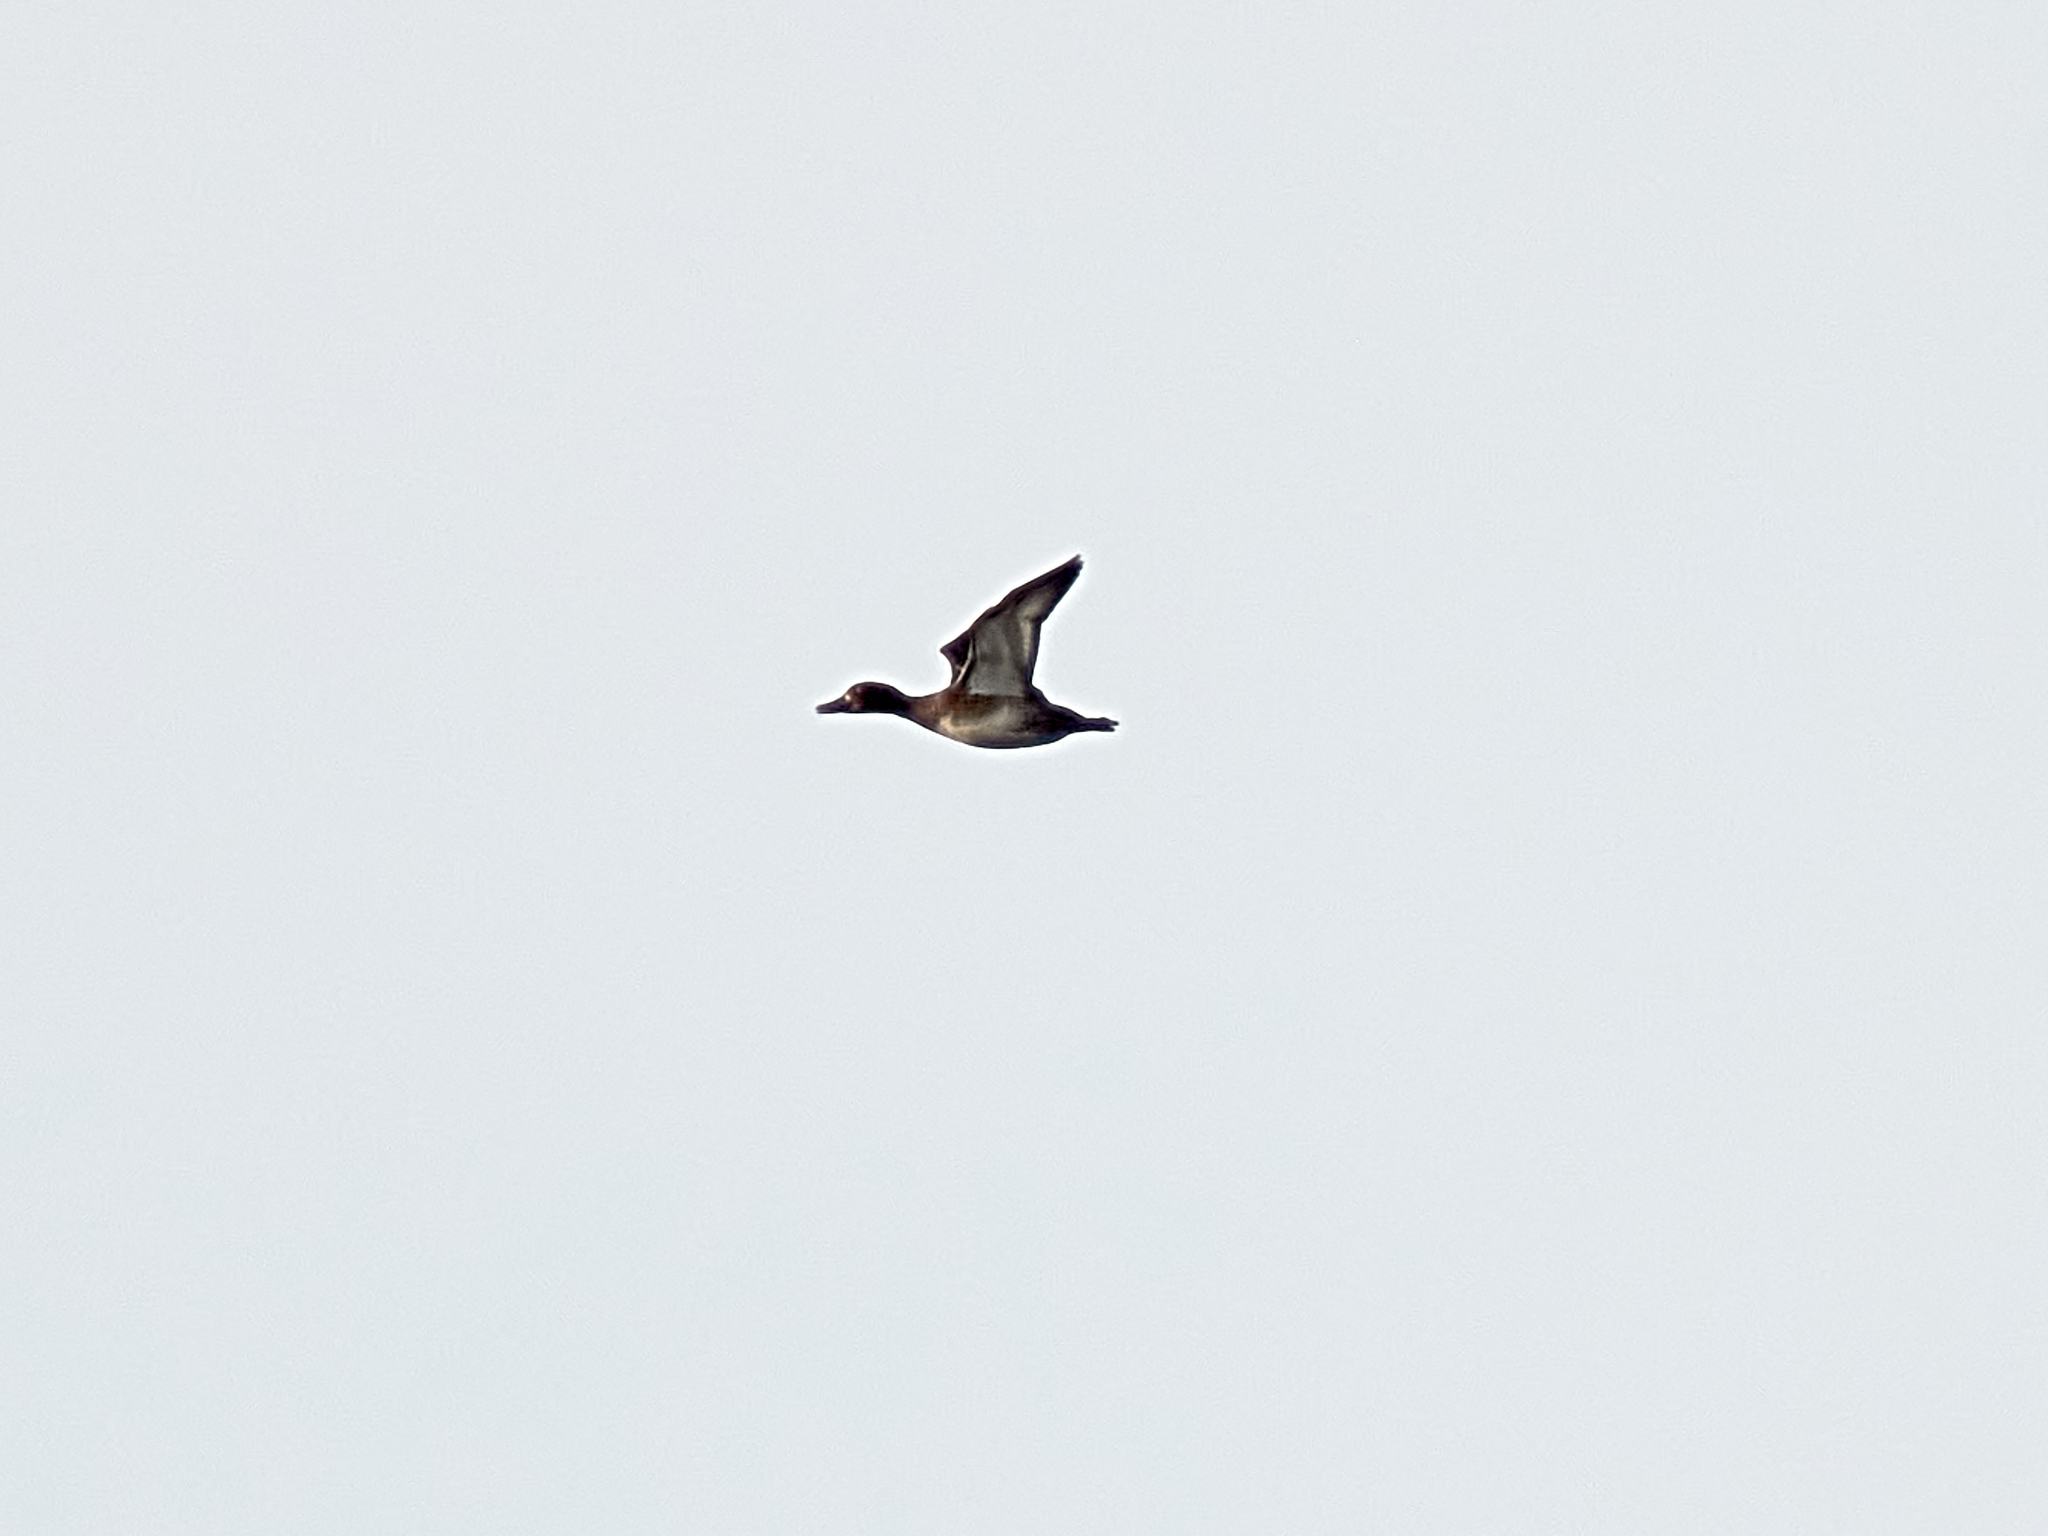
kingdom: Animalia
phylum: Chordata
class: Aves
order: Anseriformes
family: Anatidae
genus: Aythya
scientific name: Aythya fuligula
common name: Tufted duck
